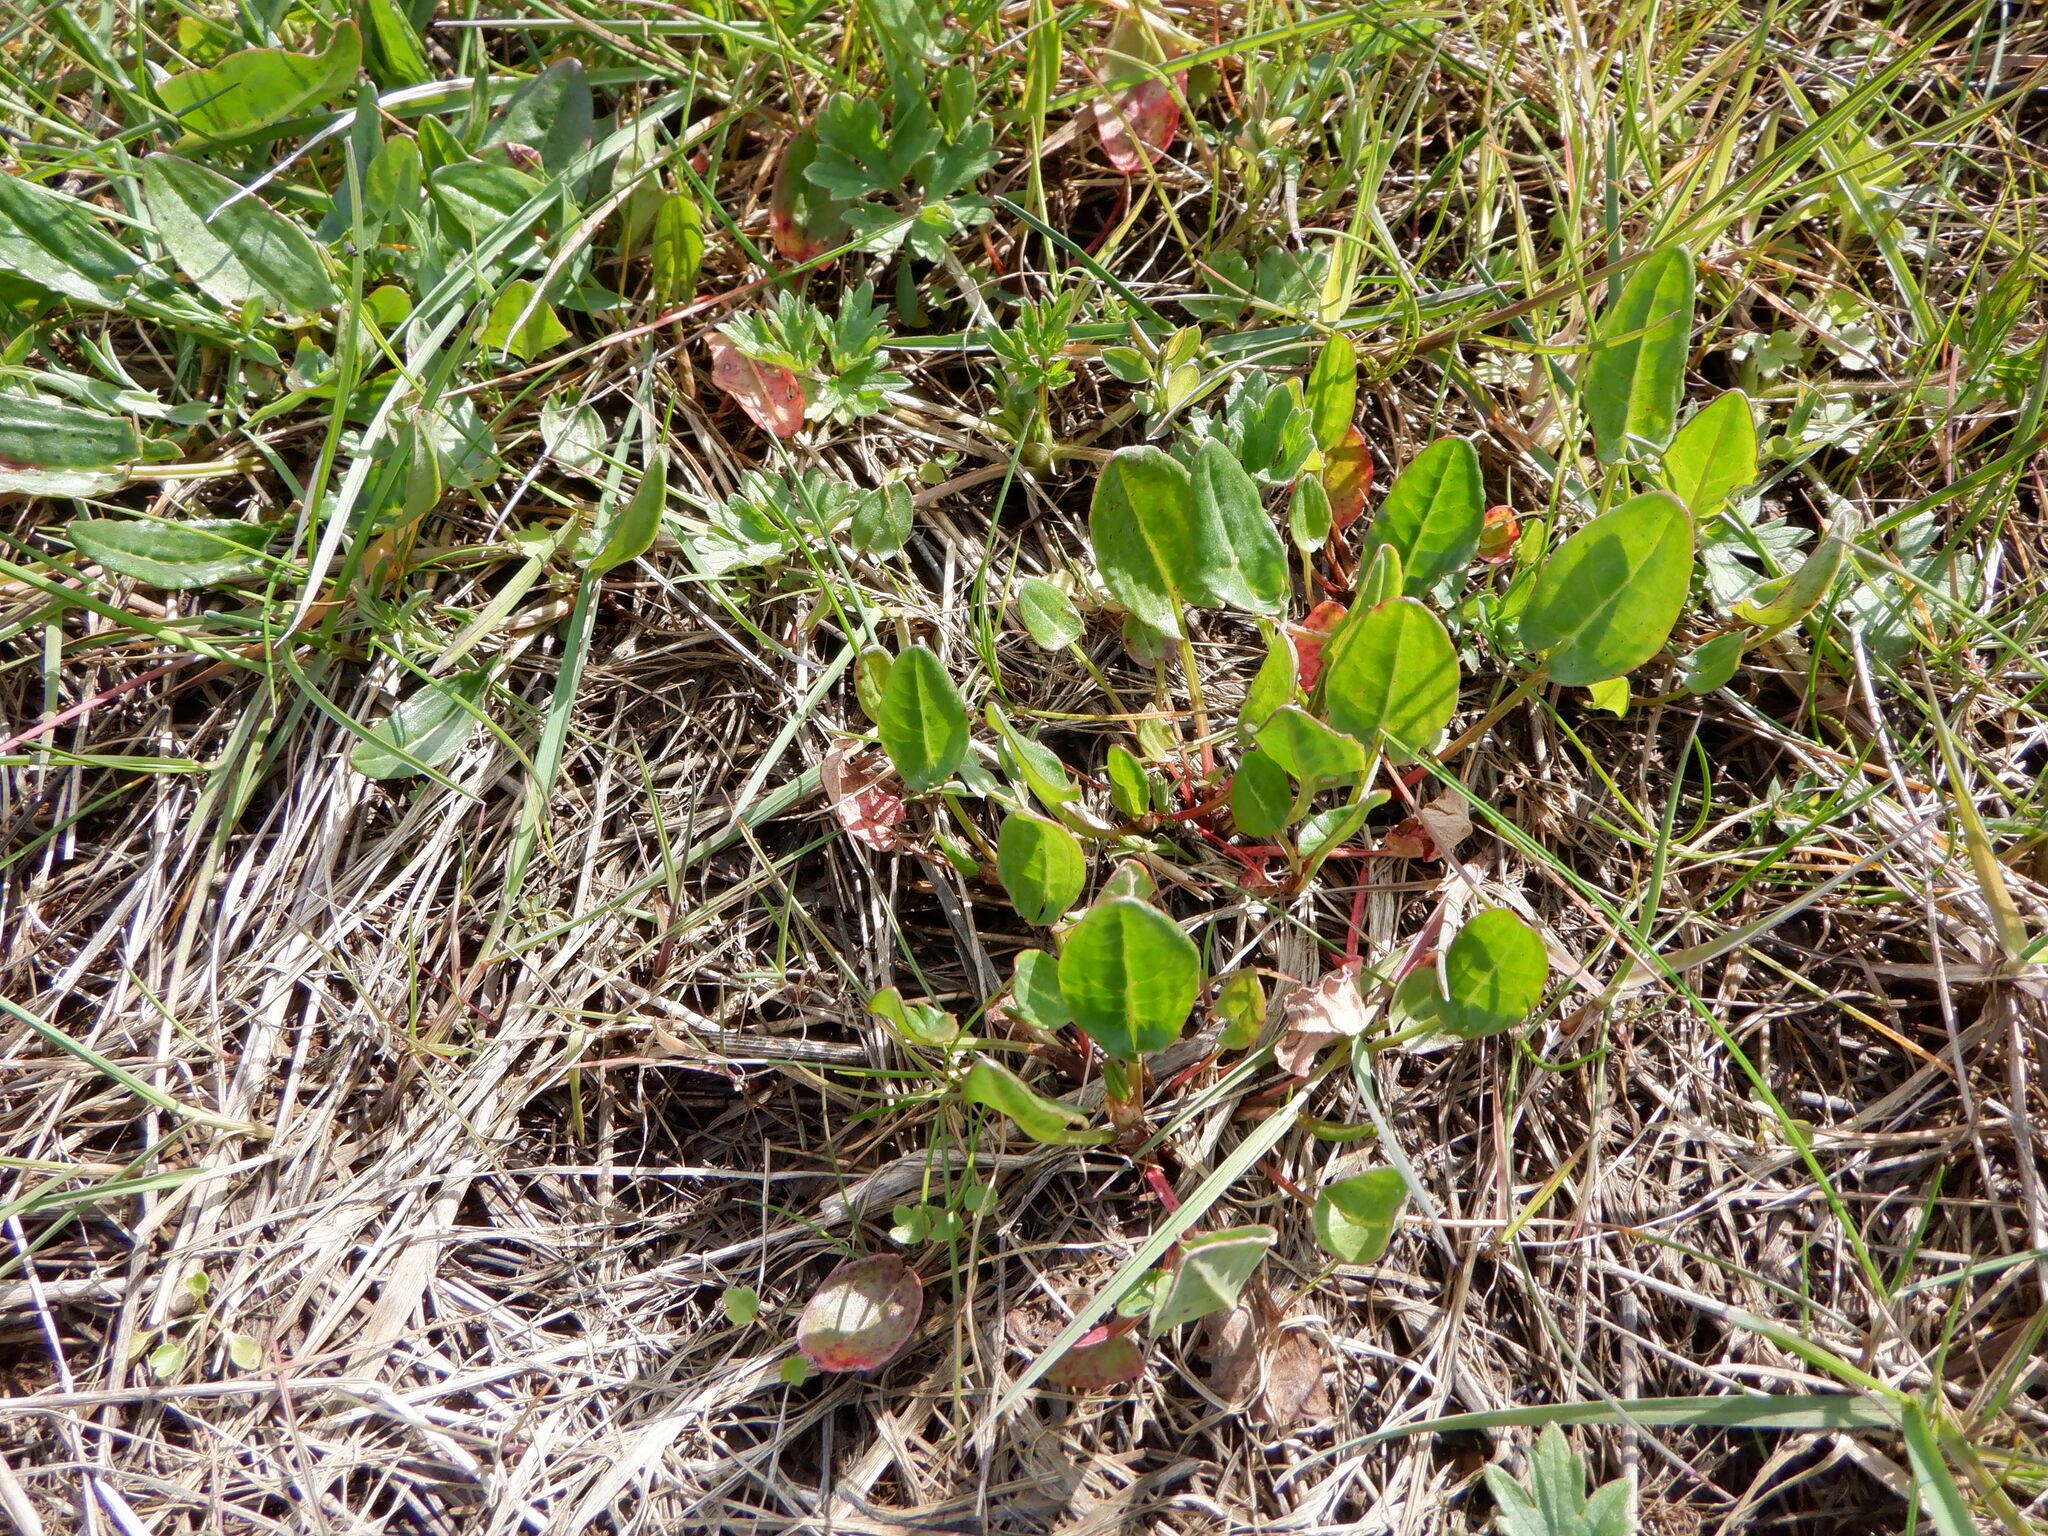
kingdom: Plantae
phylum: Tracheophyta
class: Magnoliopsida
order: Caryophyllales
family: Polygonaceae
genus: Rumex
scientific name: Rumex acetosa
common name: Garden sorrel
